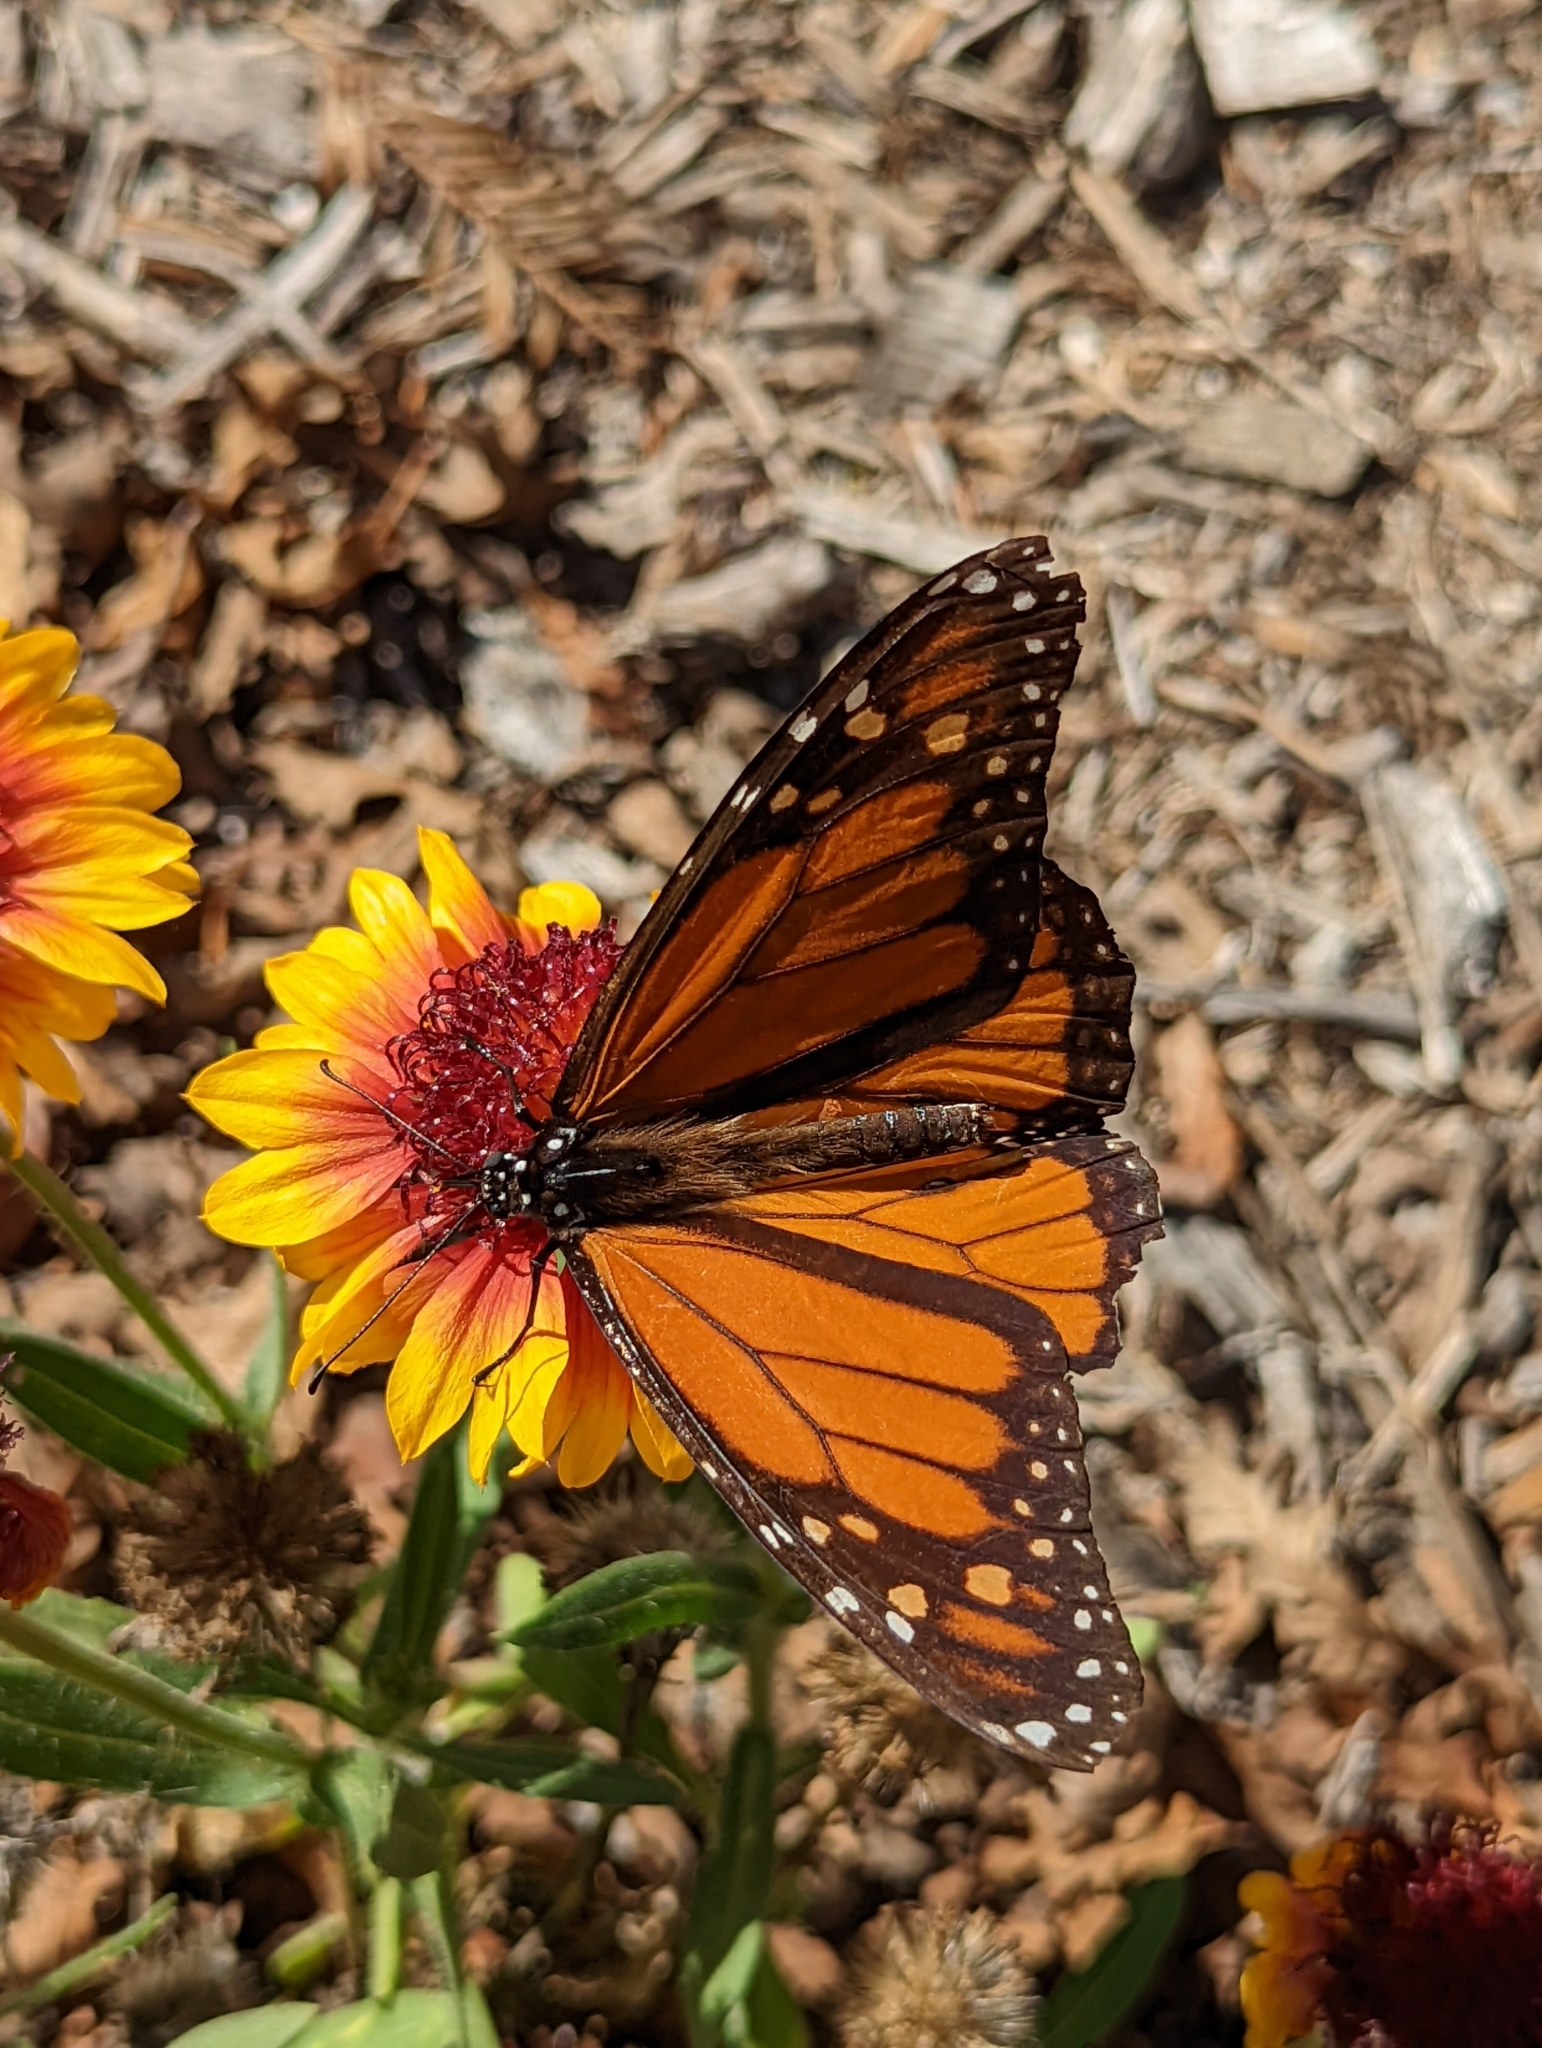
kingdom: Animalia
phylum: Arthropoda
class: Insecta
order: Lepidoptera
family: Nymphalidae
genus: Danaus
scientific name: Danaus plexippus
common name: Monarch
